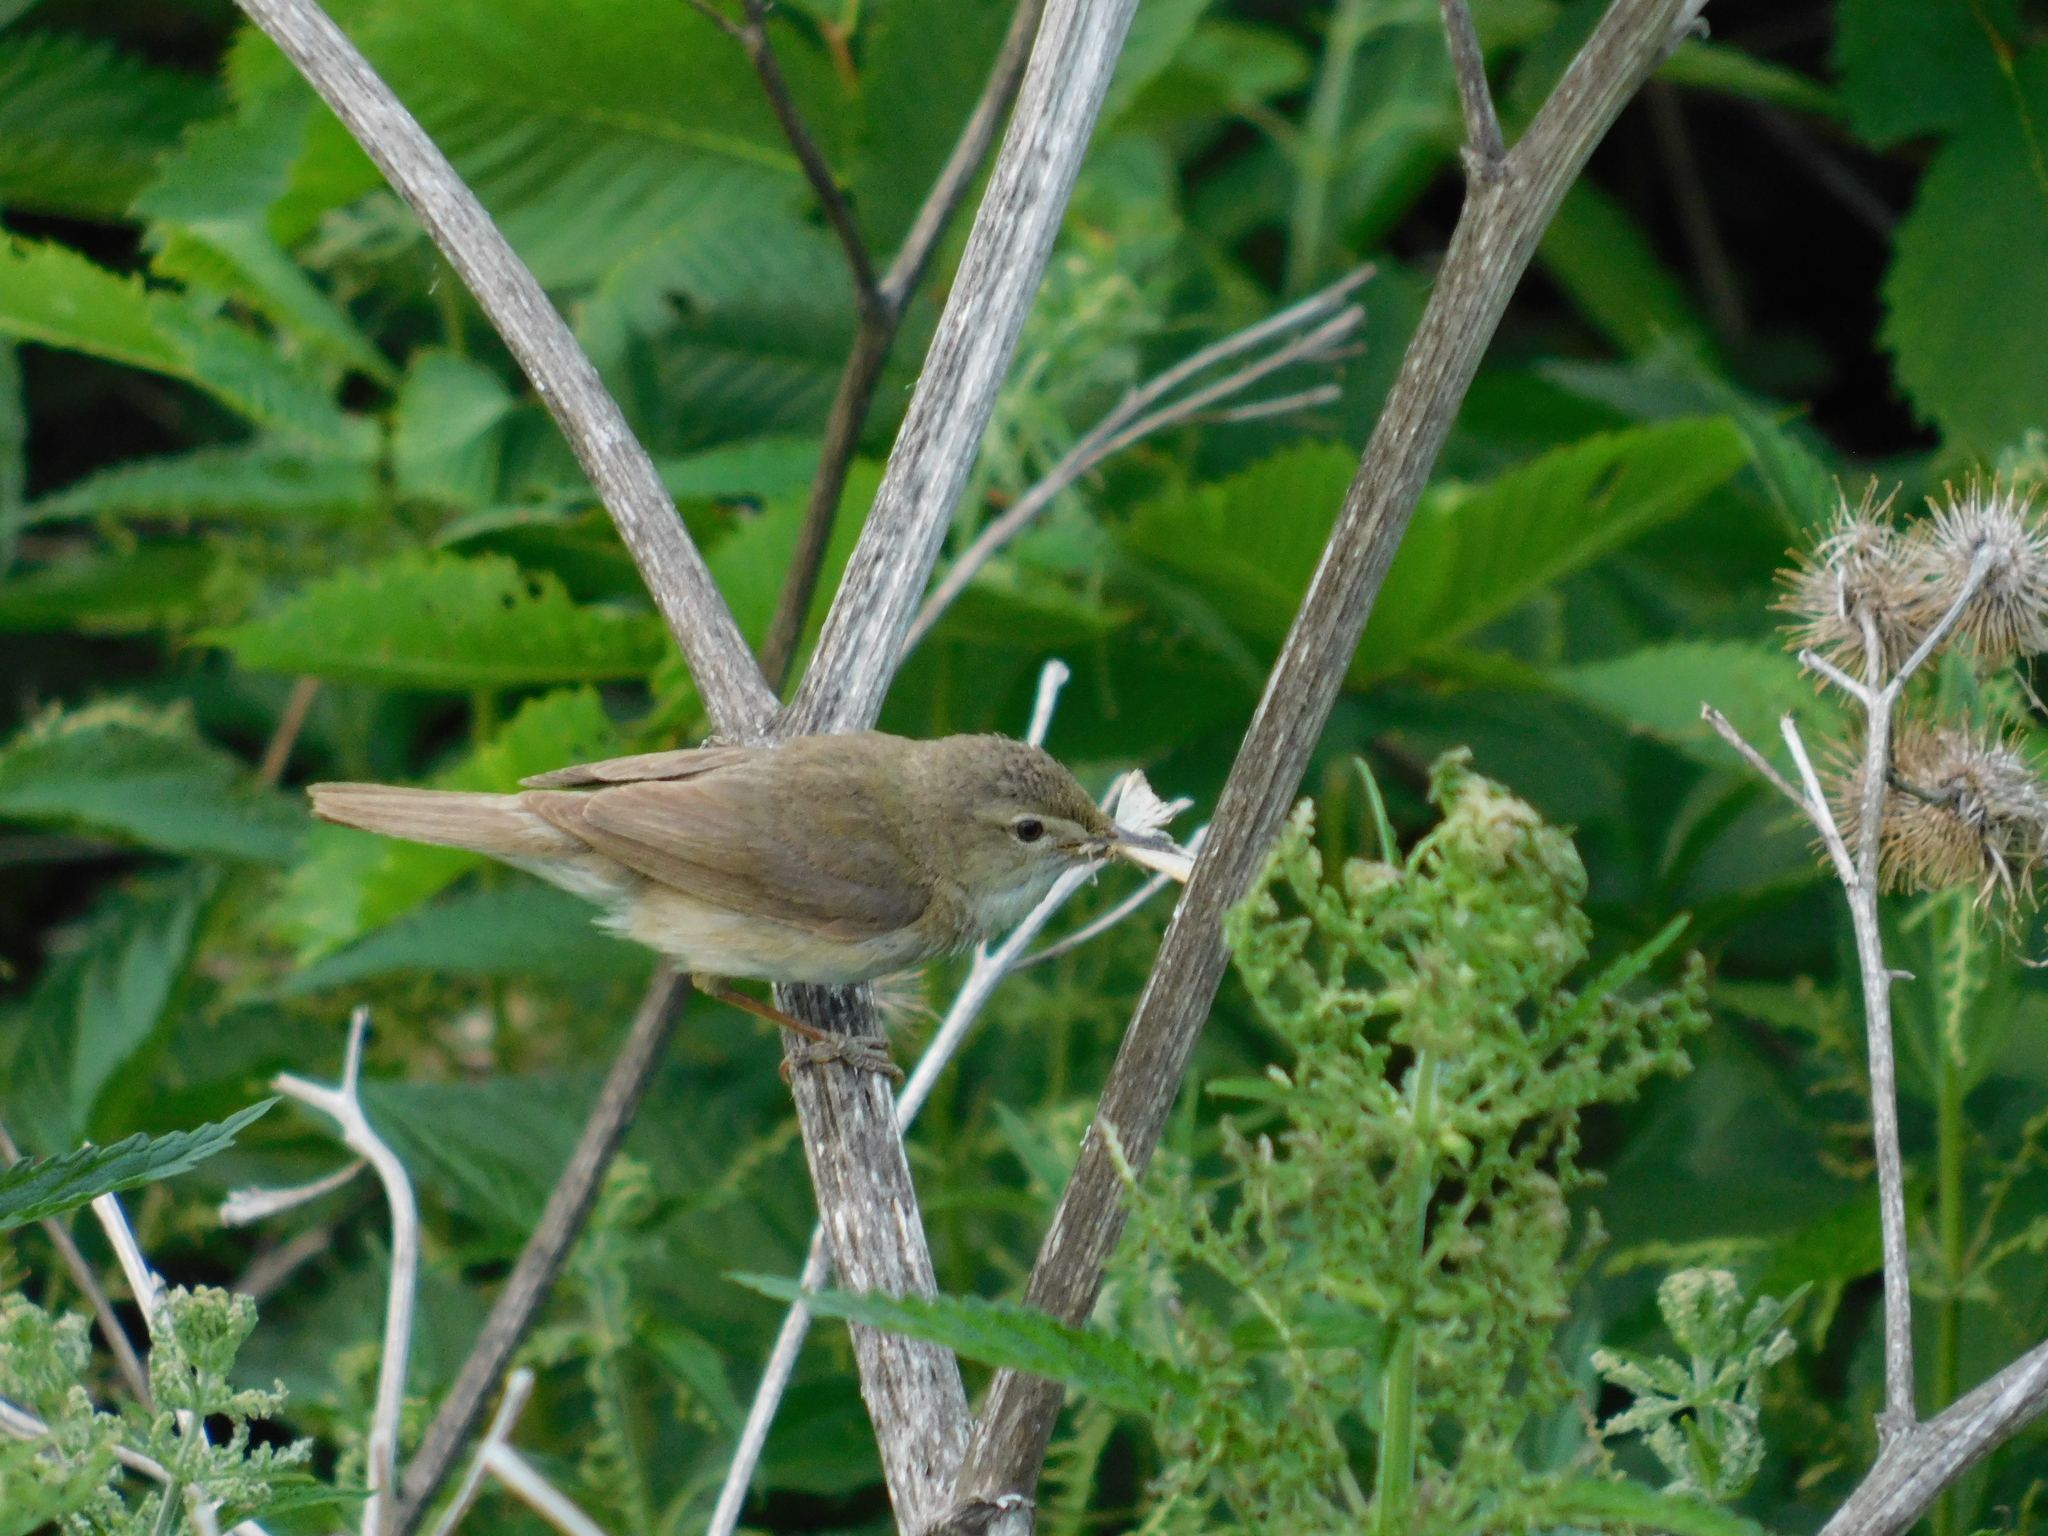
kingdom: Animalia
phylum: Chordata
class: Aves
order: Passeriformes
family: Acrocephalidae
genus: Acrocephalus
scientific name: Acrocephalus dumetorum
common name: Blyth's reed warbler
